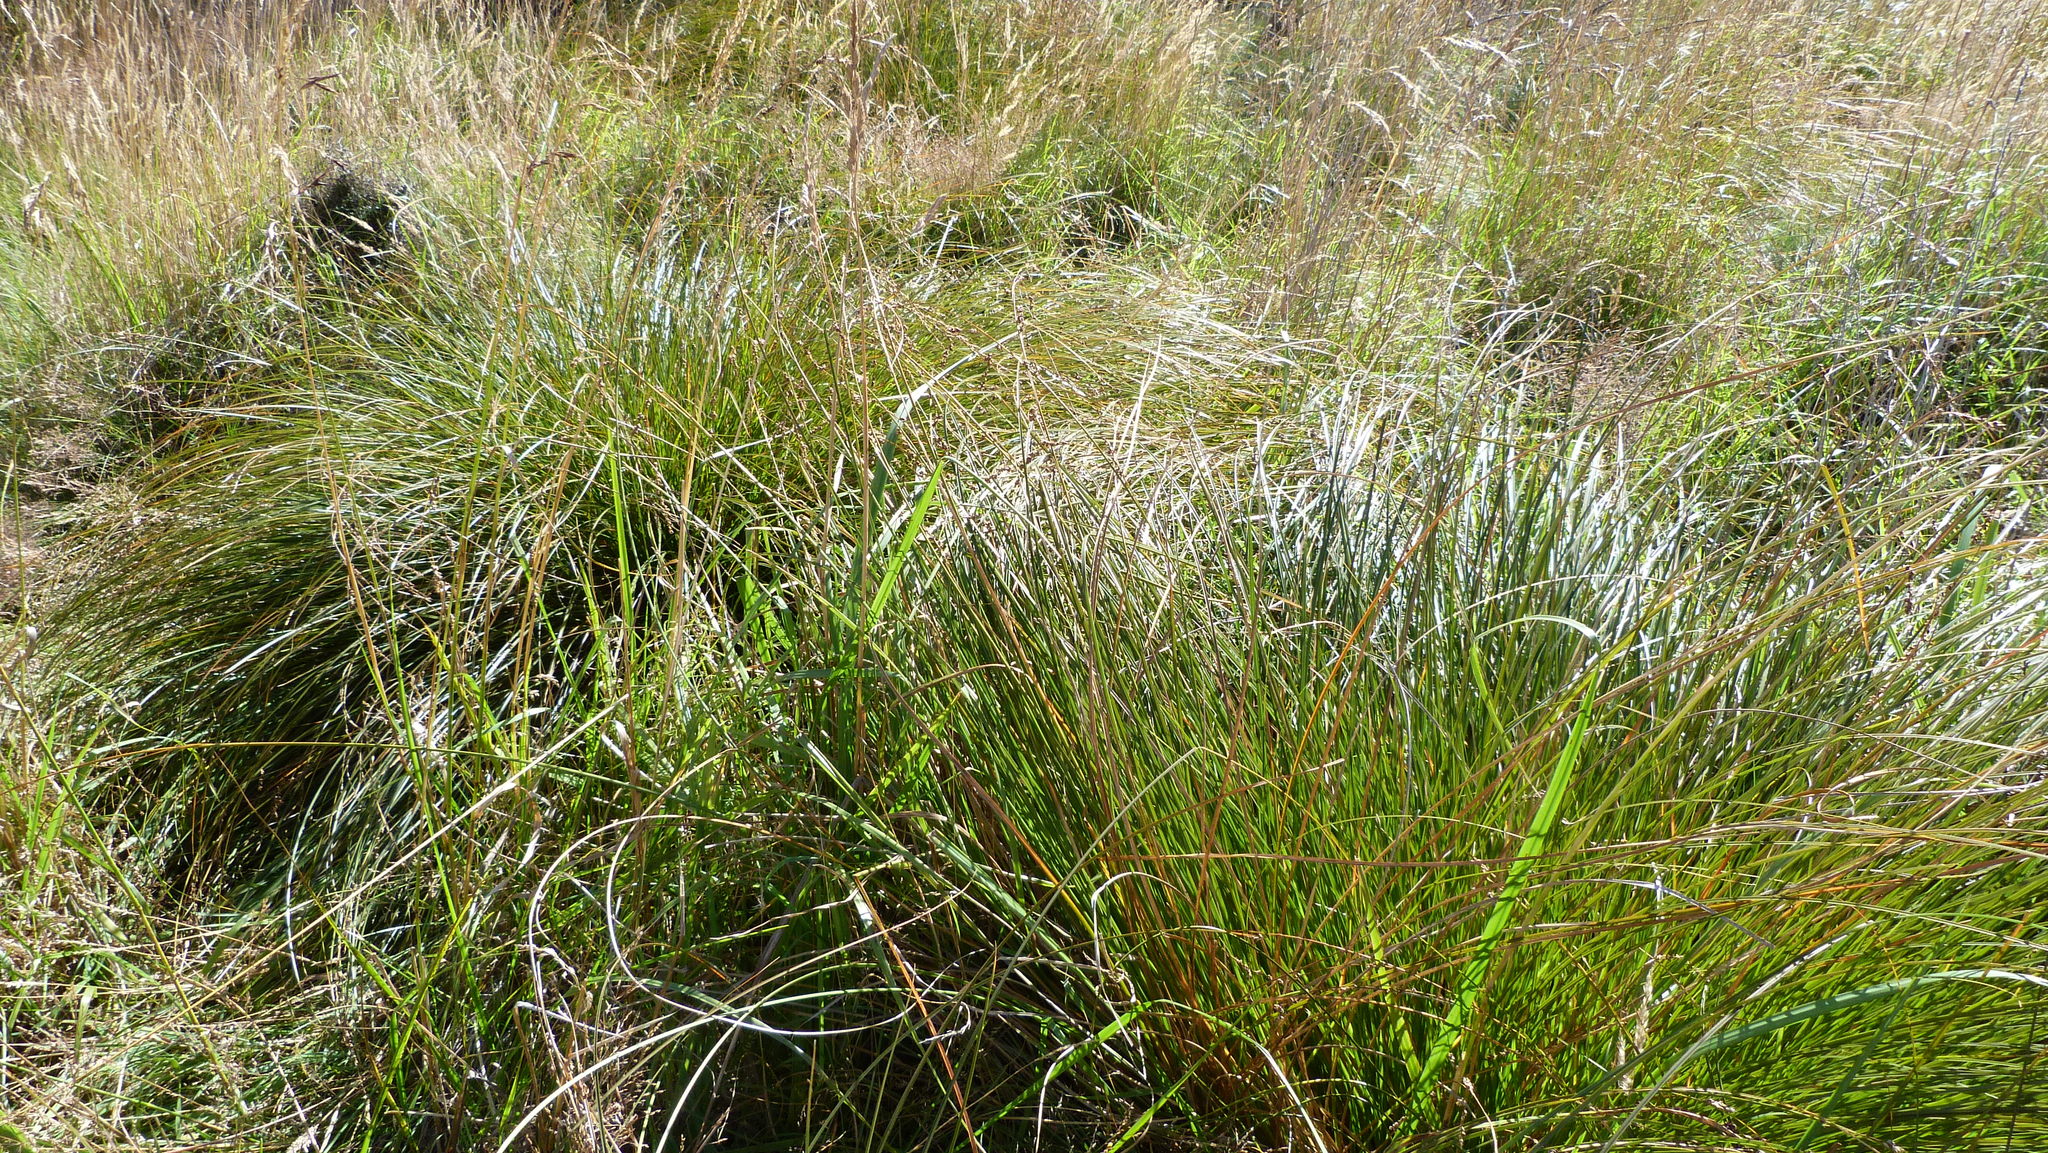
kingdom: Plantae
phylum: Tracheophyta
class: Liliopsida
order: Poales
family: Cyperaceae
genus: Carex
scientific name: Carex secta
